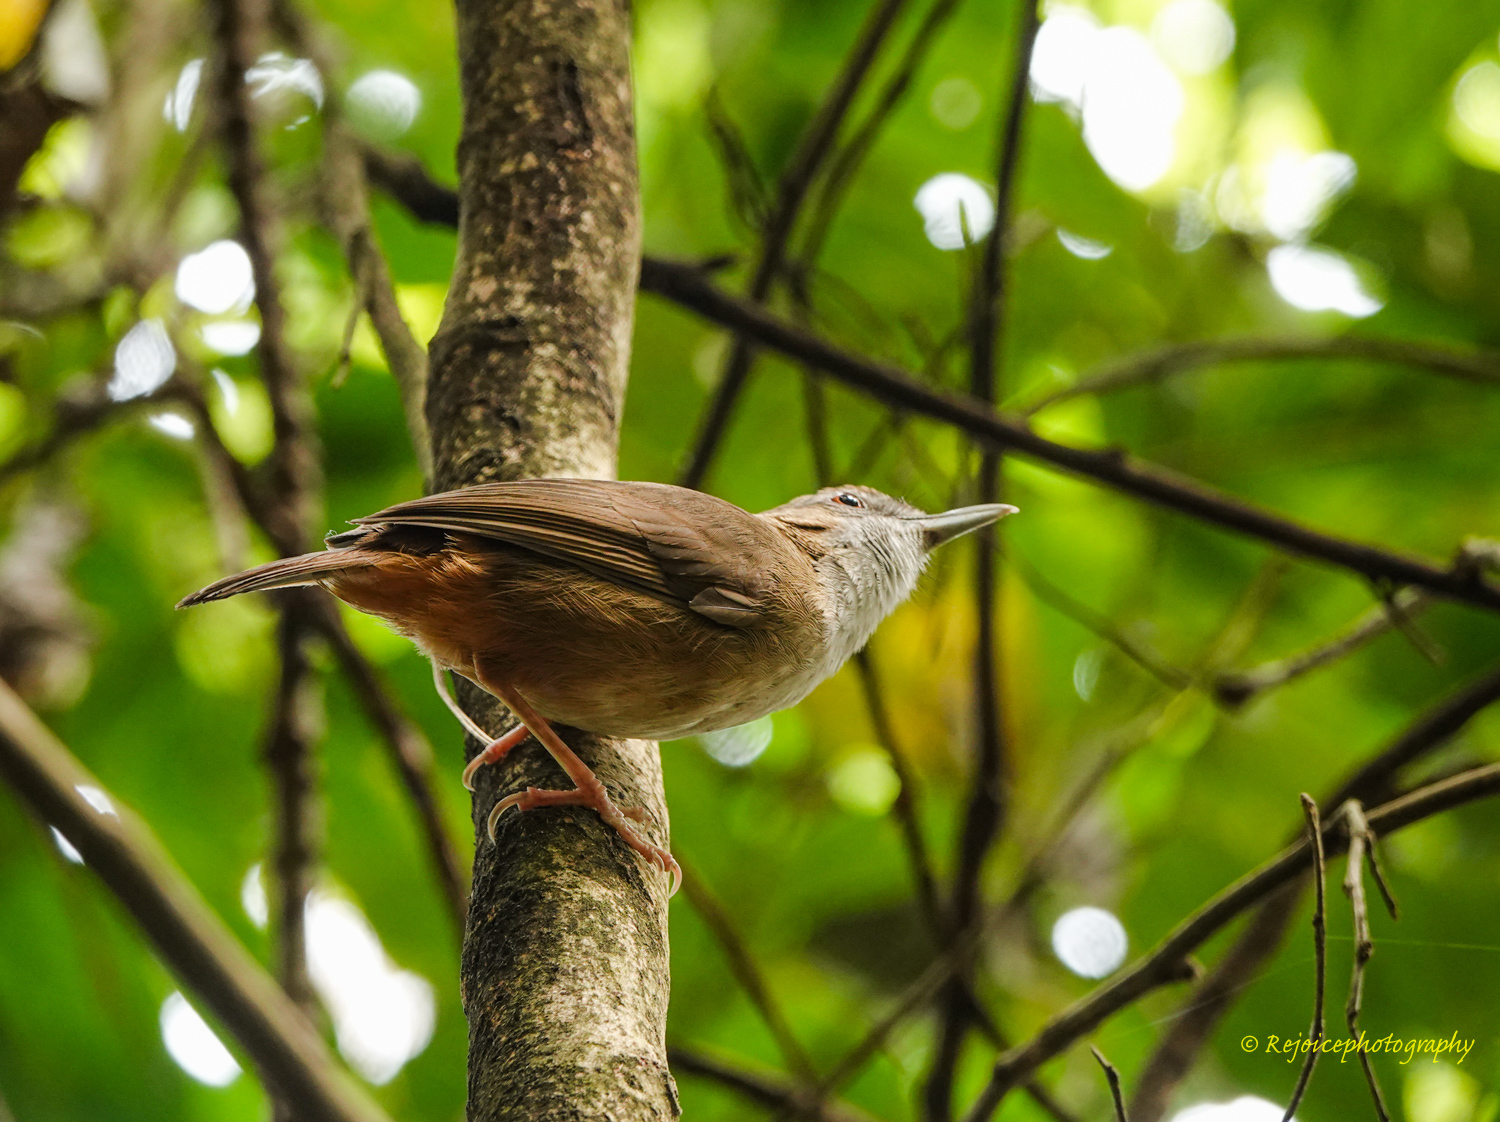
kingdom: Animalia
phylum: Chordata
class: Aves
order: Passeriformes
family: Pellorneidae
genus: Malacocincla
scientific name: Malacocincla abbotti
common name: Abbott's babbler
